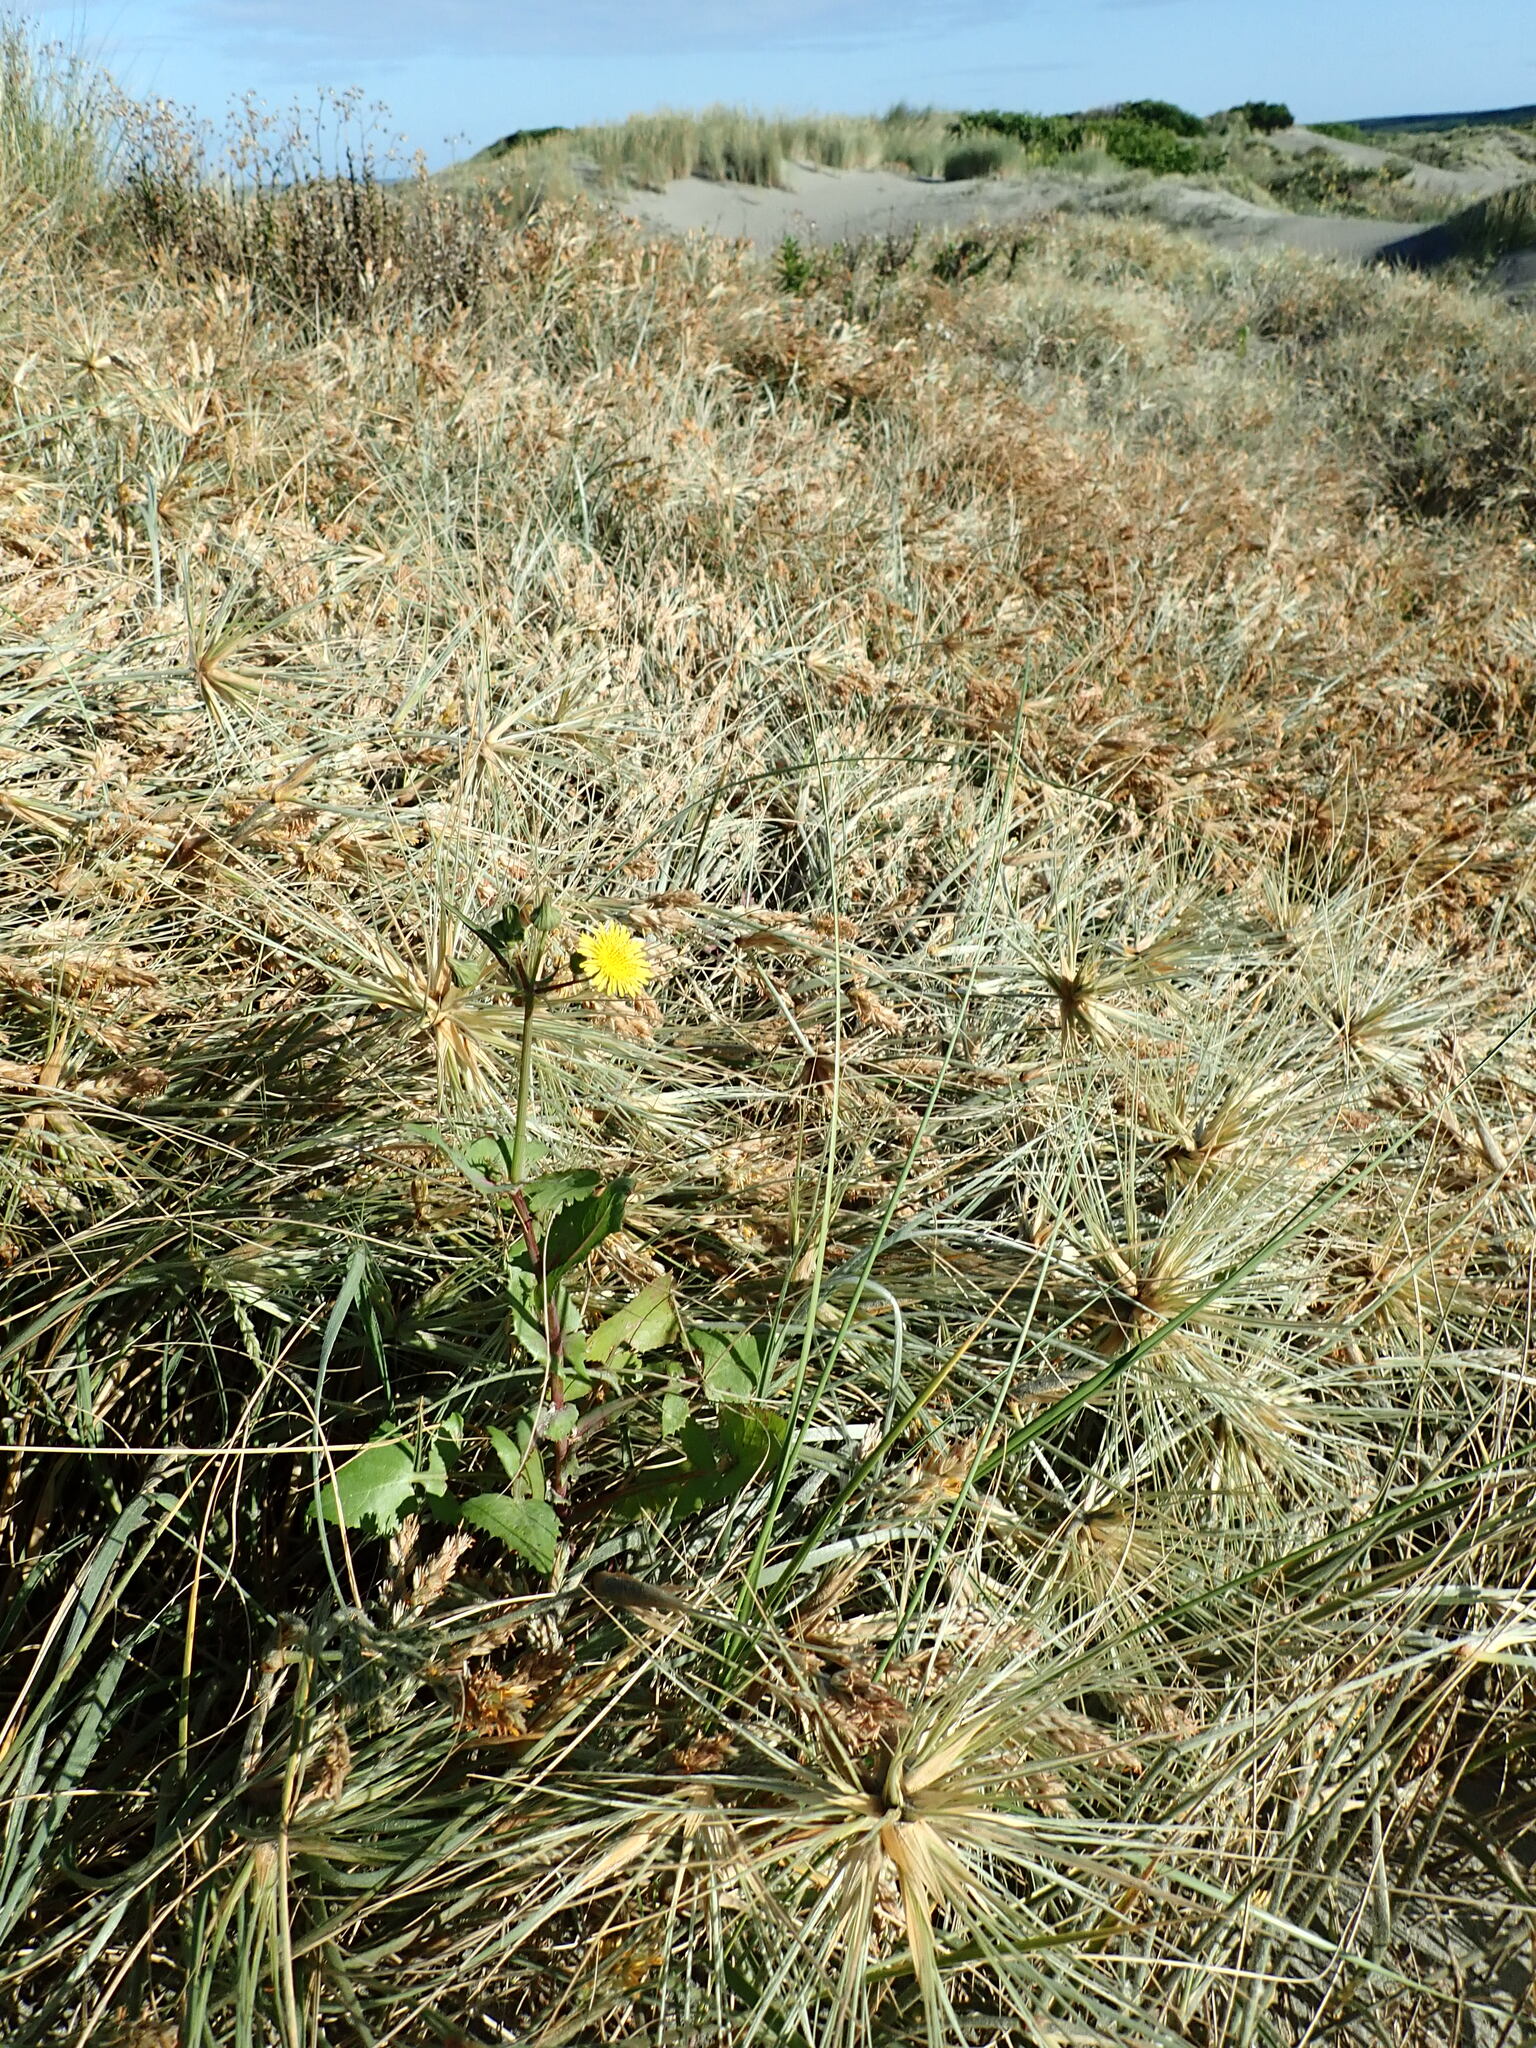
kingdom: Plantae
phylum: Tracheophyta
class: Magnoliopsida
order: Asterales
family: Asteraceae
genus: Sonchus
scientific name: Sonchus oleraceus
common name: Common sowthistle
